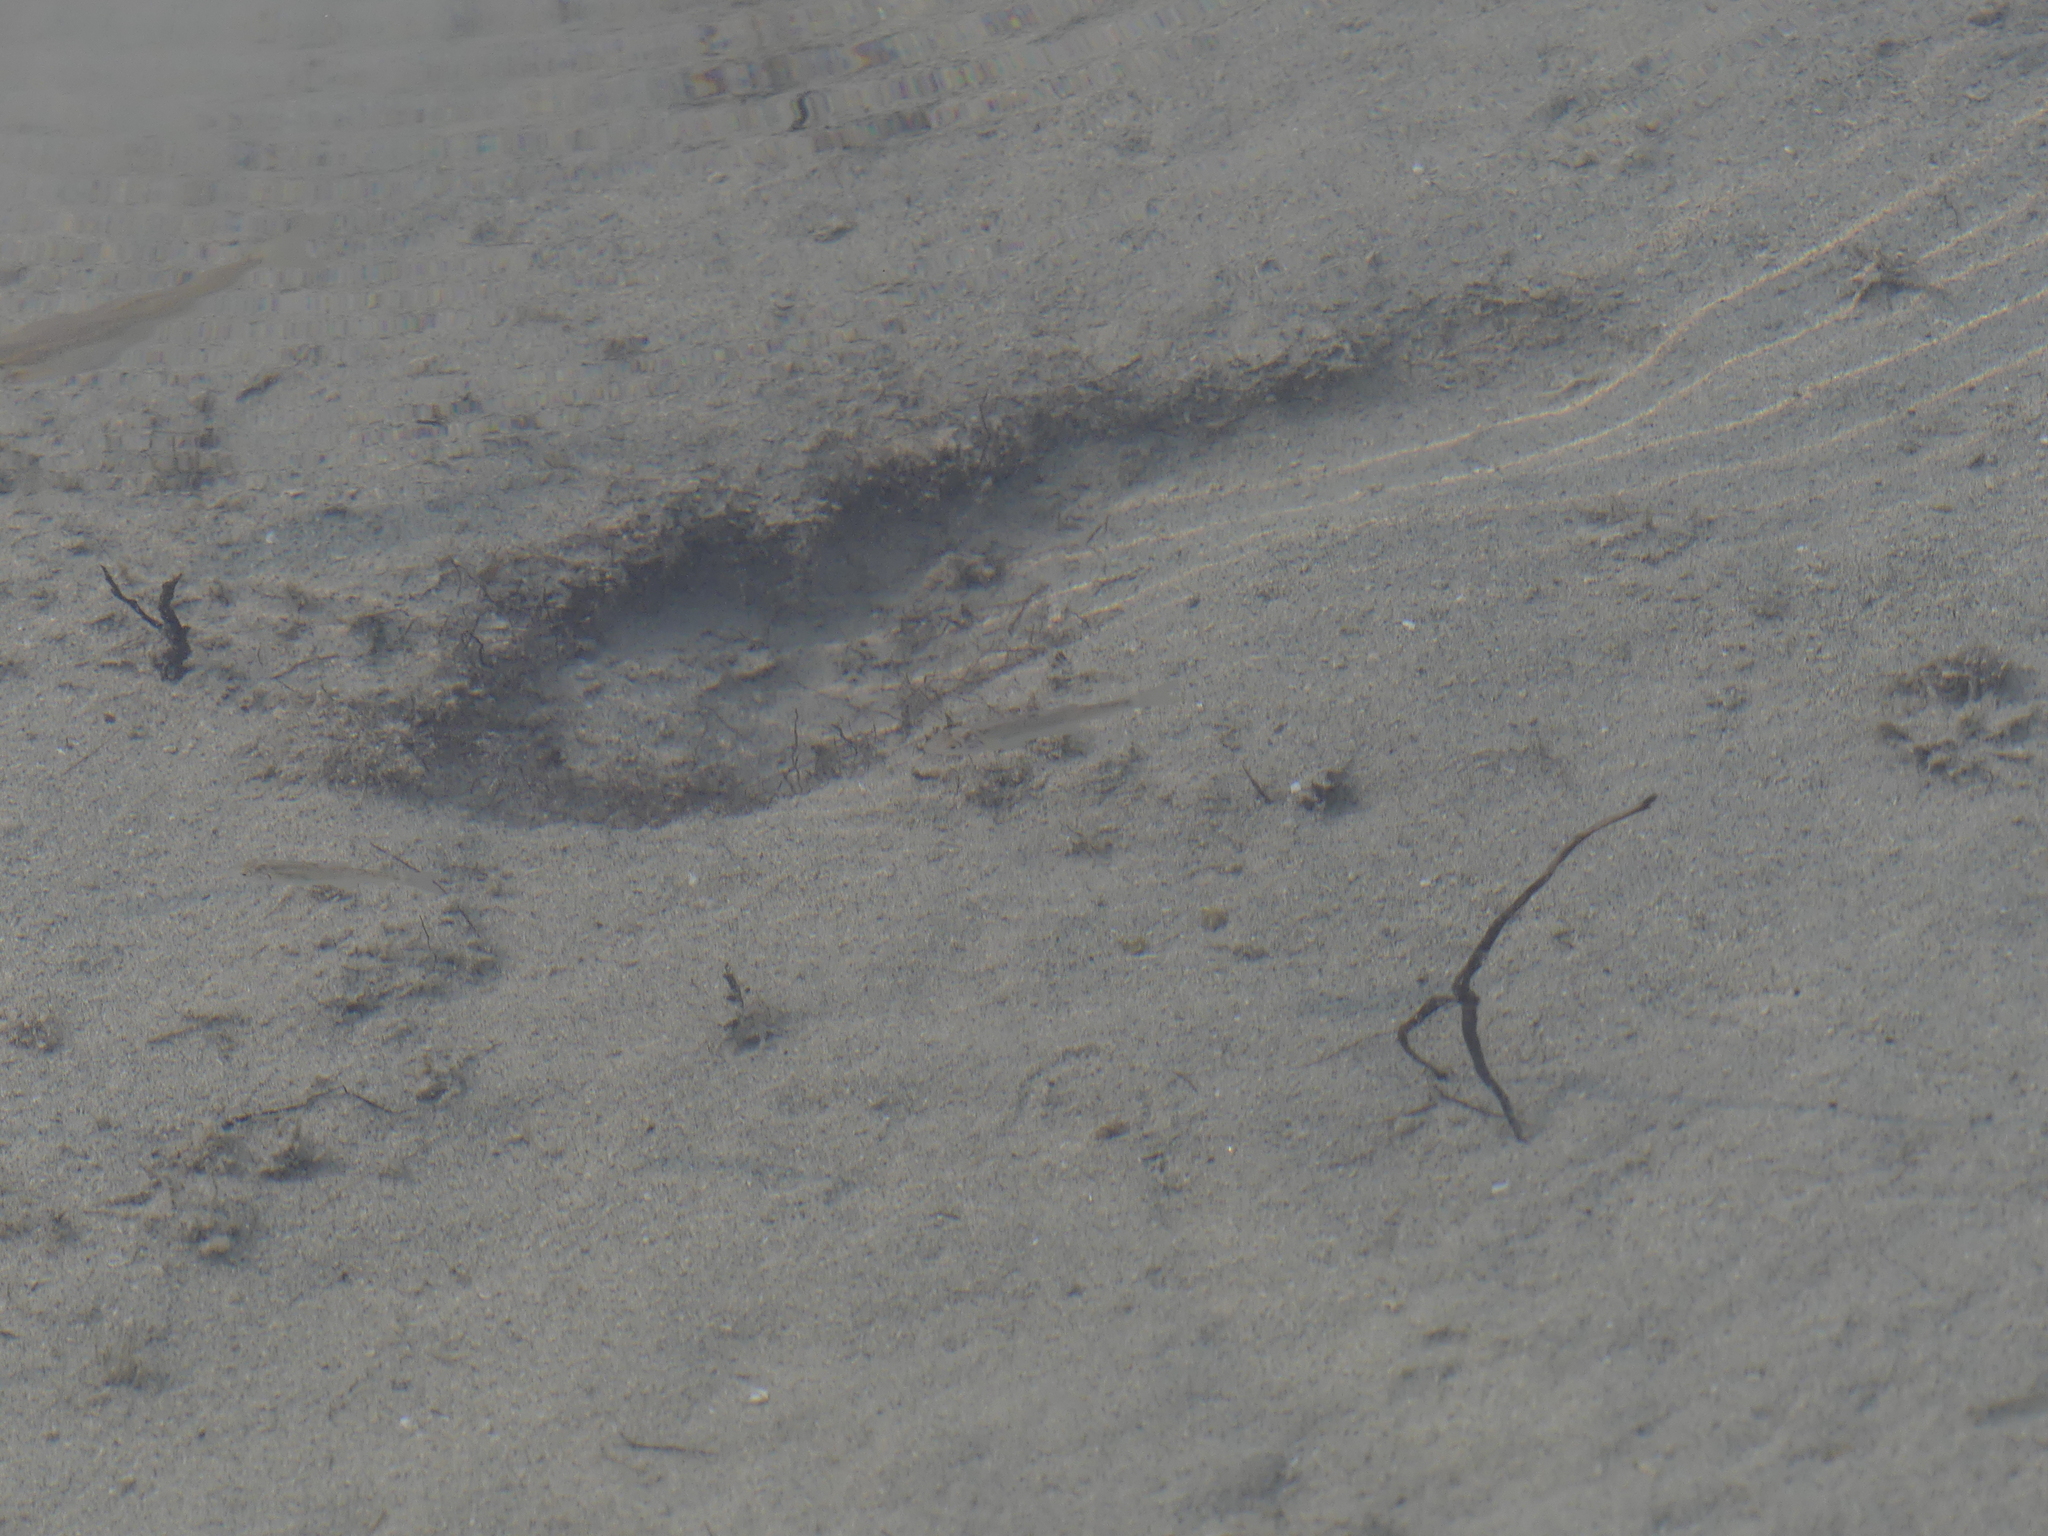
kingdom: Animalia
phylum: Chordata
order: Cypriniformes
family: Cyprinidae
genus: Couesius
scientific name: Couesius plumbeus
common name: Lake chub
